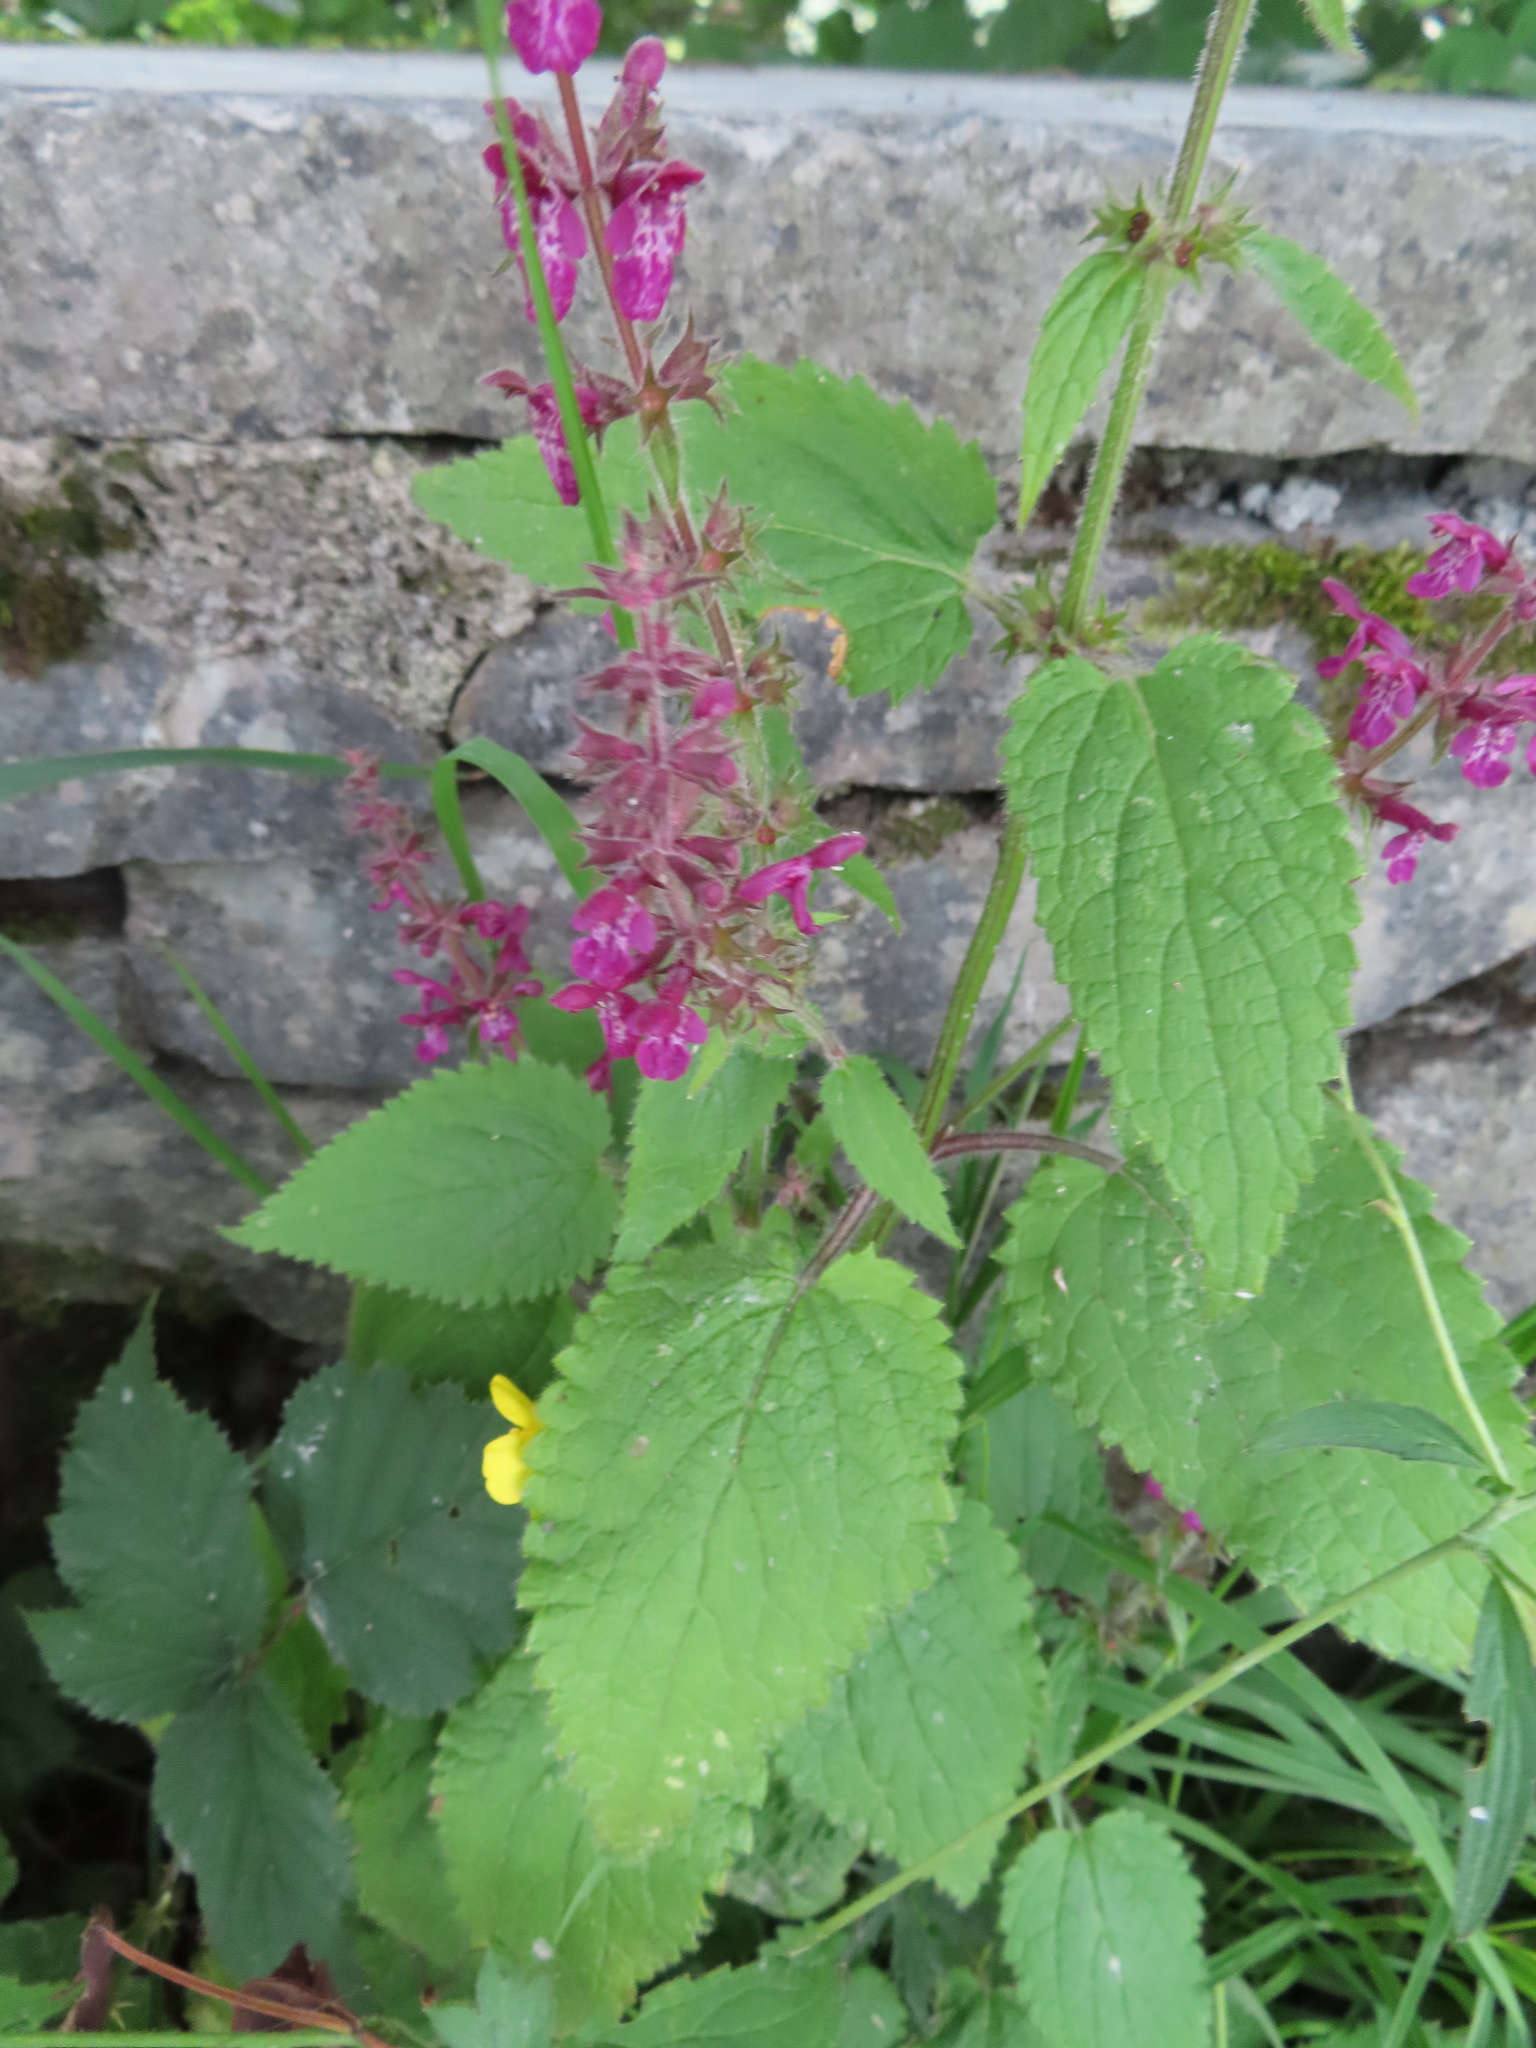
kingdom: Plantae
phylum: Tracheophyta
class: Magnoliopsida
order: Lamiales
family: Lamiaceae
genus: Stachys
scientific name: Stachys sylvatica
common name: Hedge woundwort
